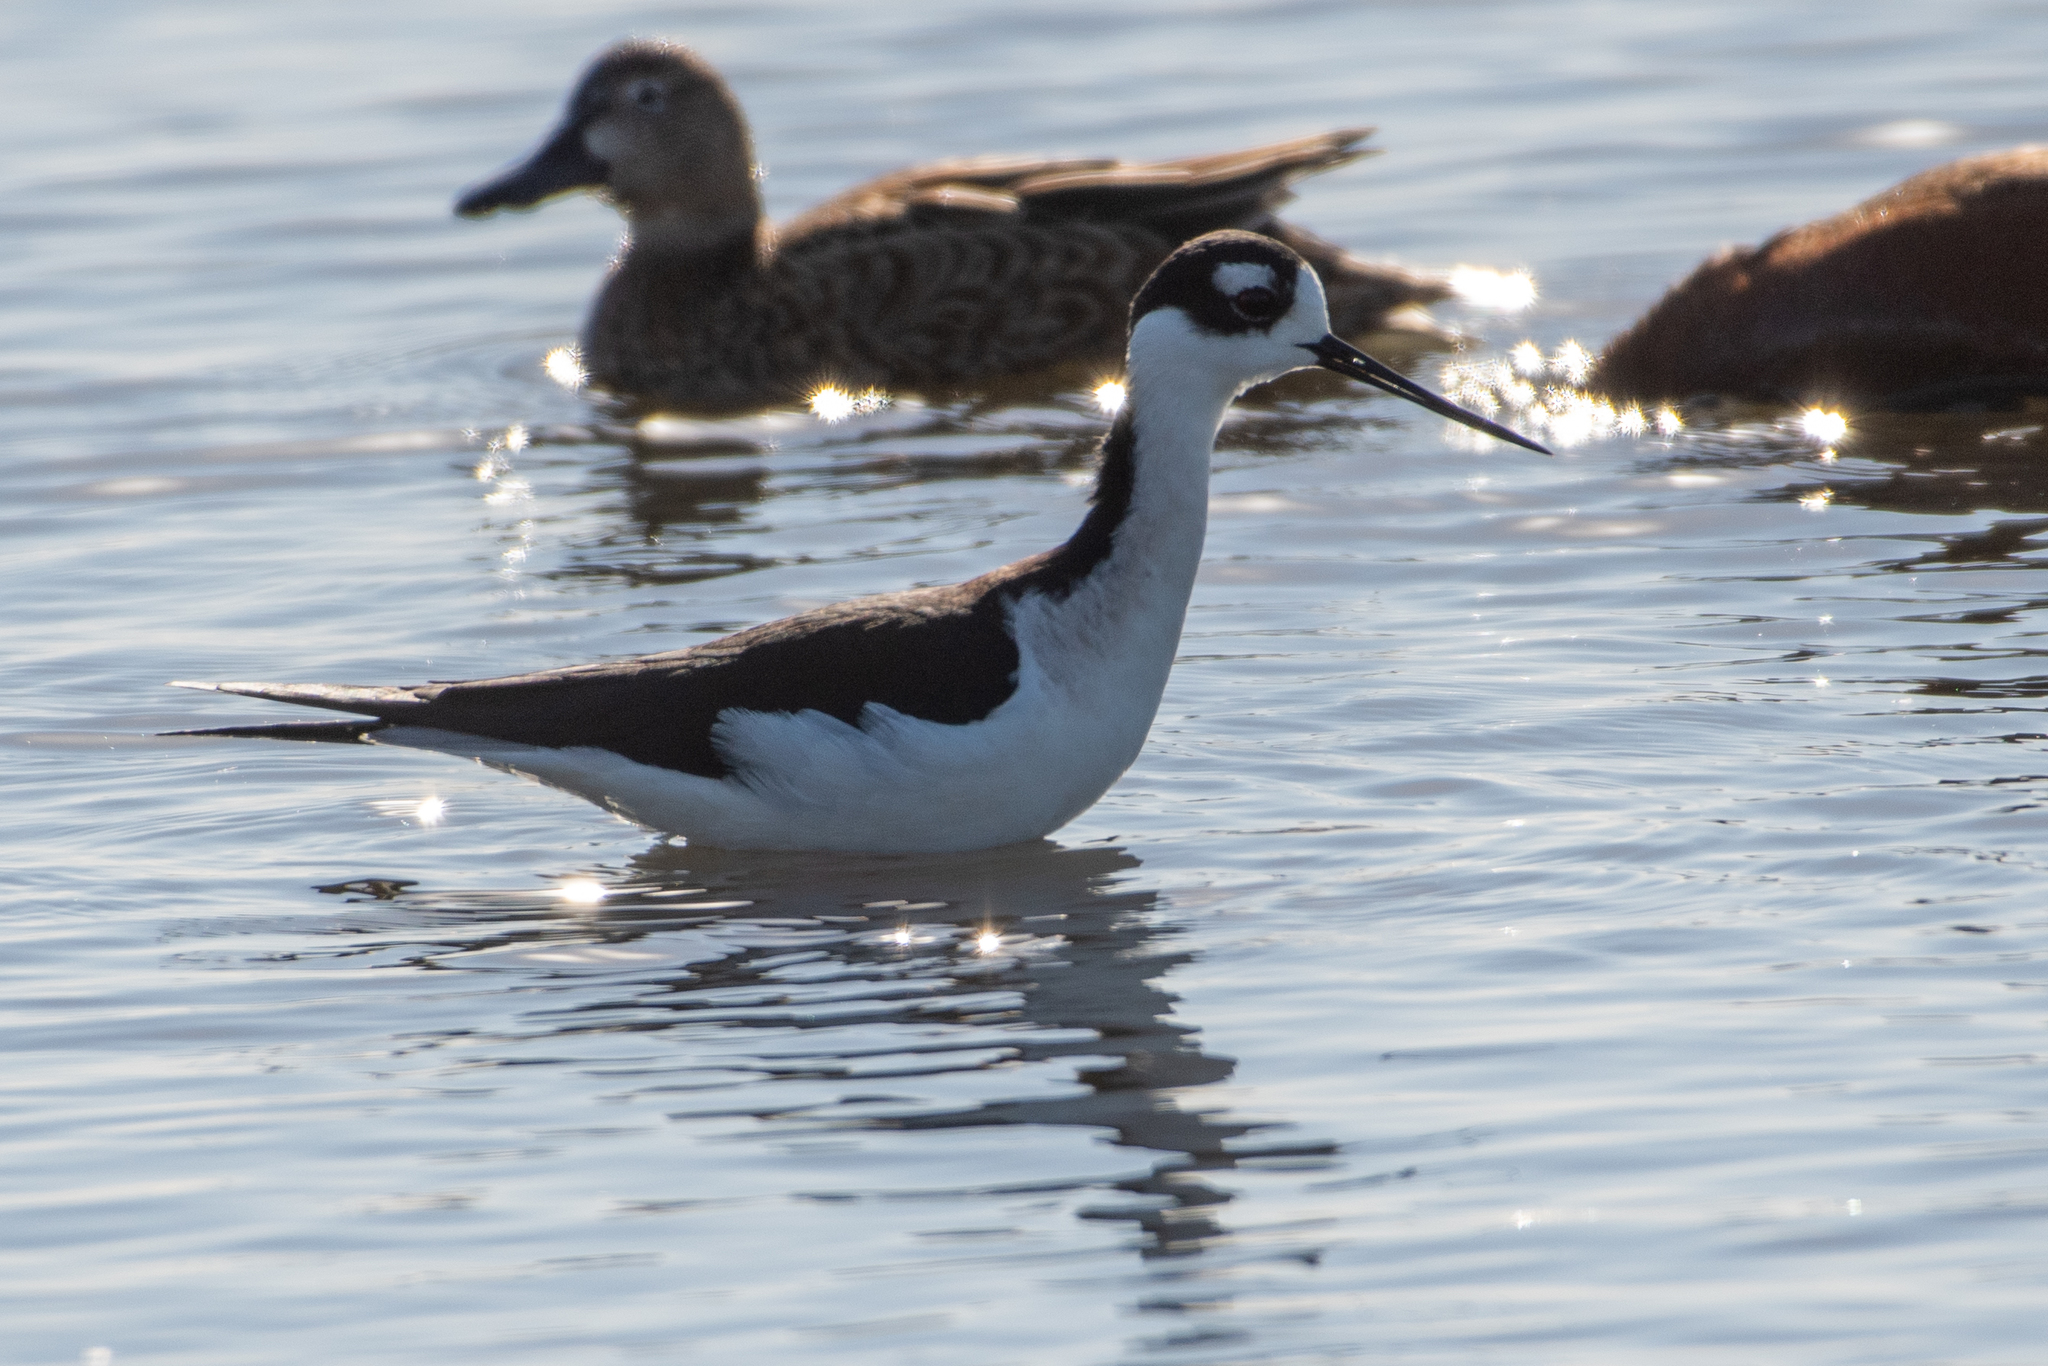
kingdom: Animalia
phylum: Chordata
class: Aves
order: Charadriiformes
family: Recurvirostridae
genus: Himantopus
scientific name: Himantopus mexicanus
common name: Black-necked stilt
